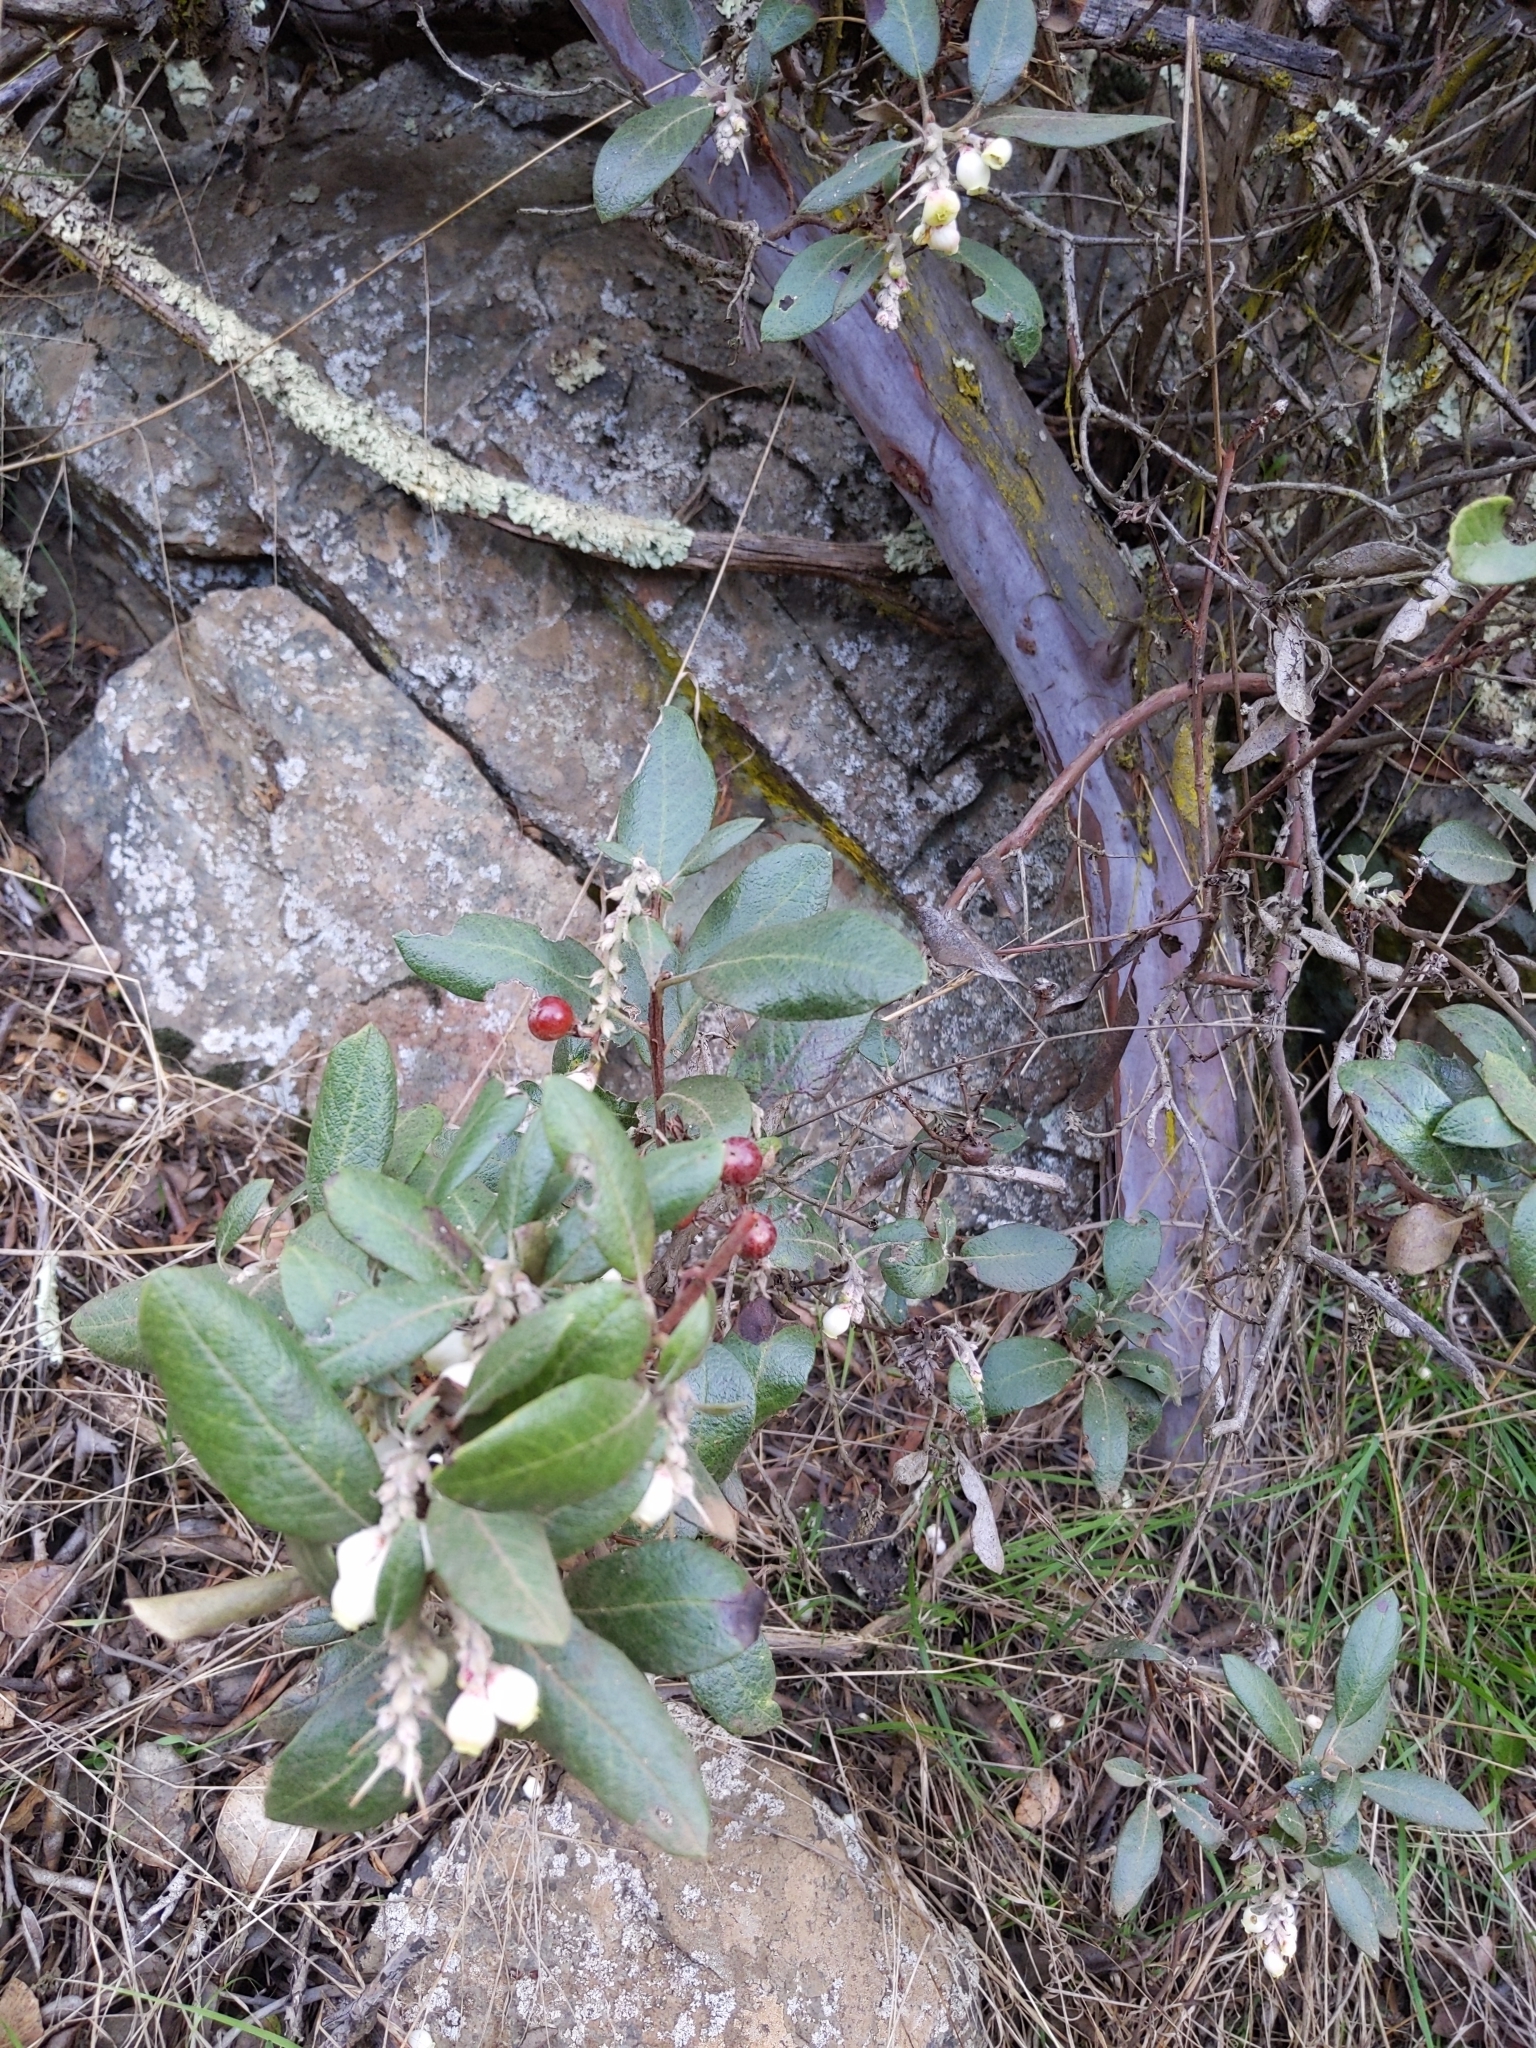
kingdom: Plantae
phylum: Tracheophyta
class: Magnoliopsida
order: Ericales
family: Ericaceae
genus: Arctostaphylos
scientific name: Arctostaphylos bicolor
